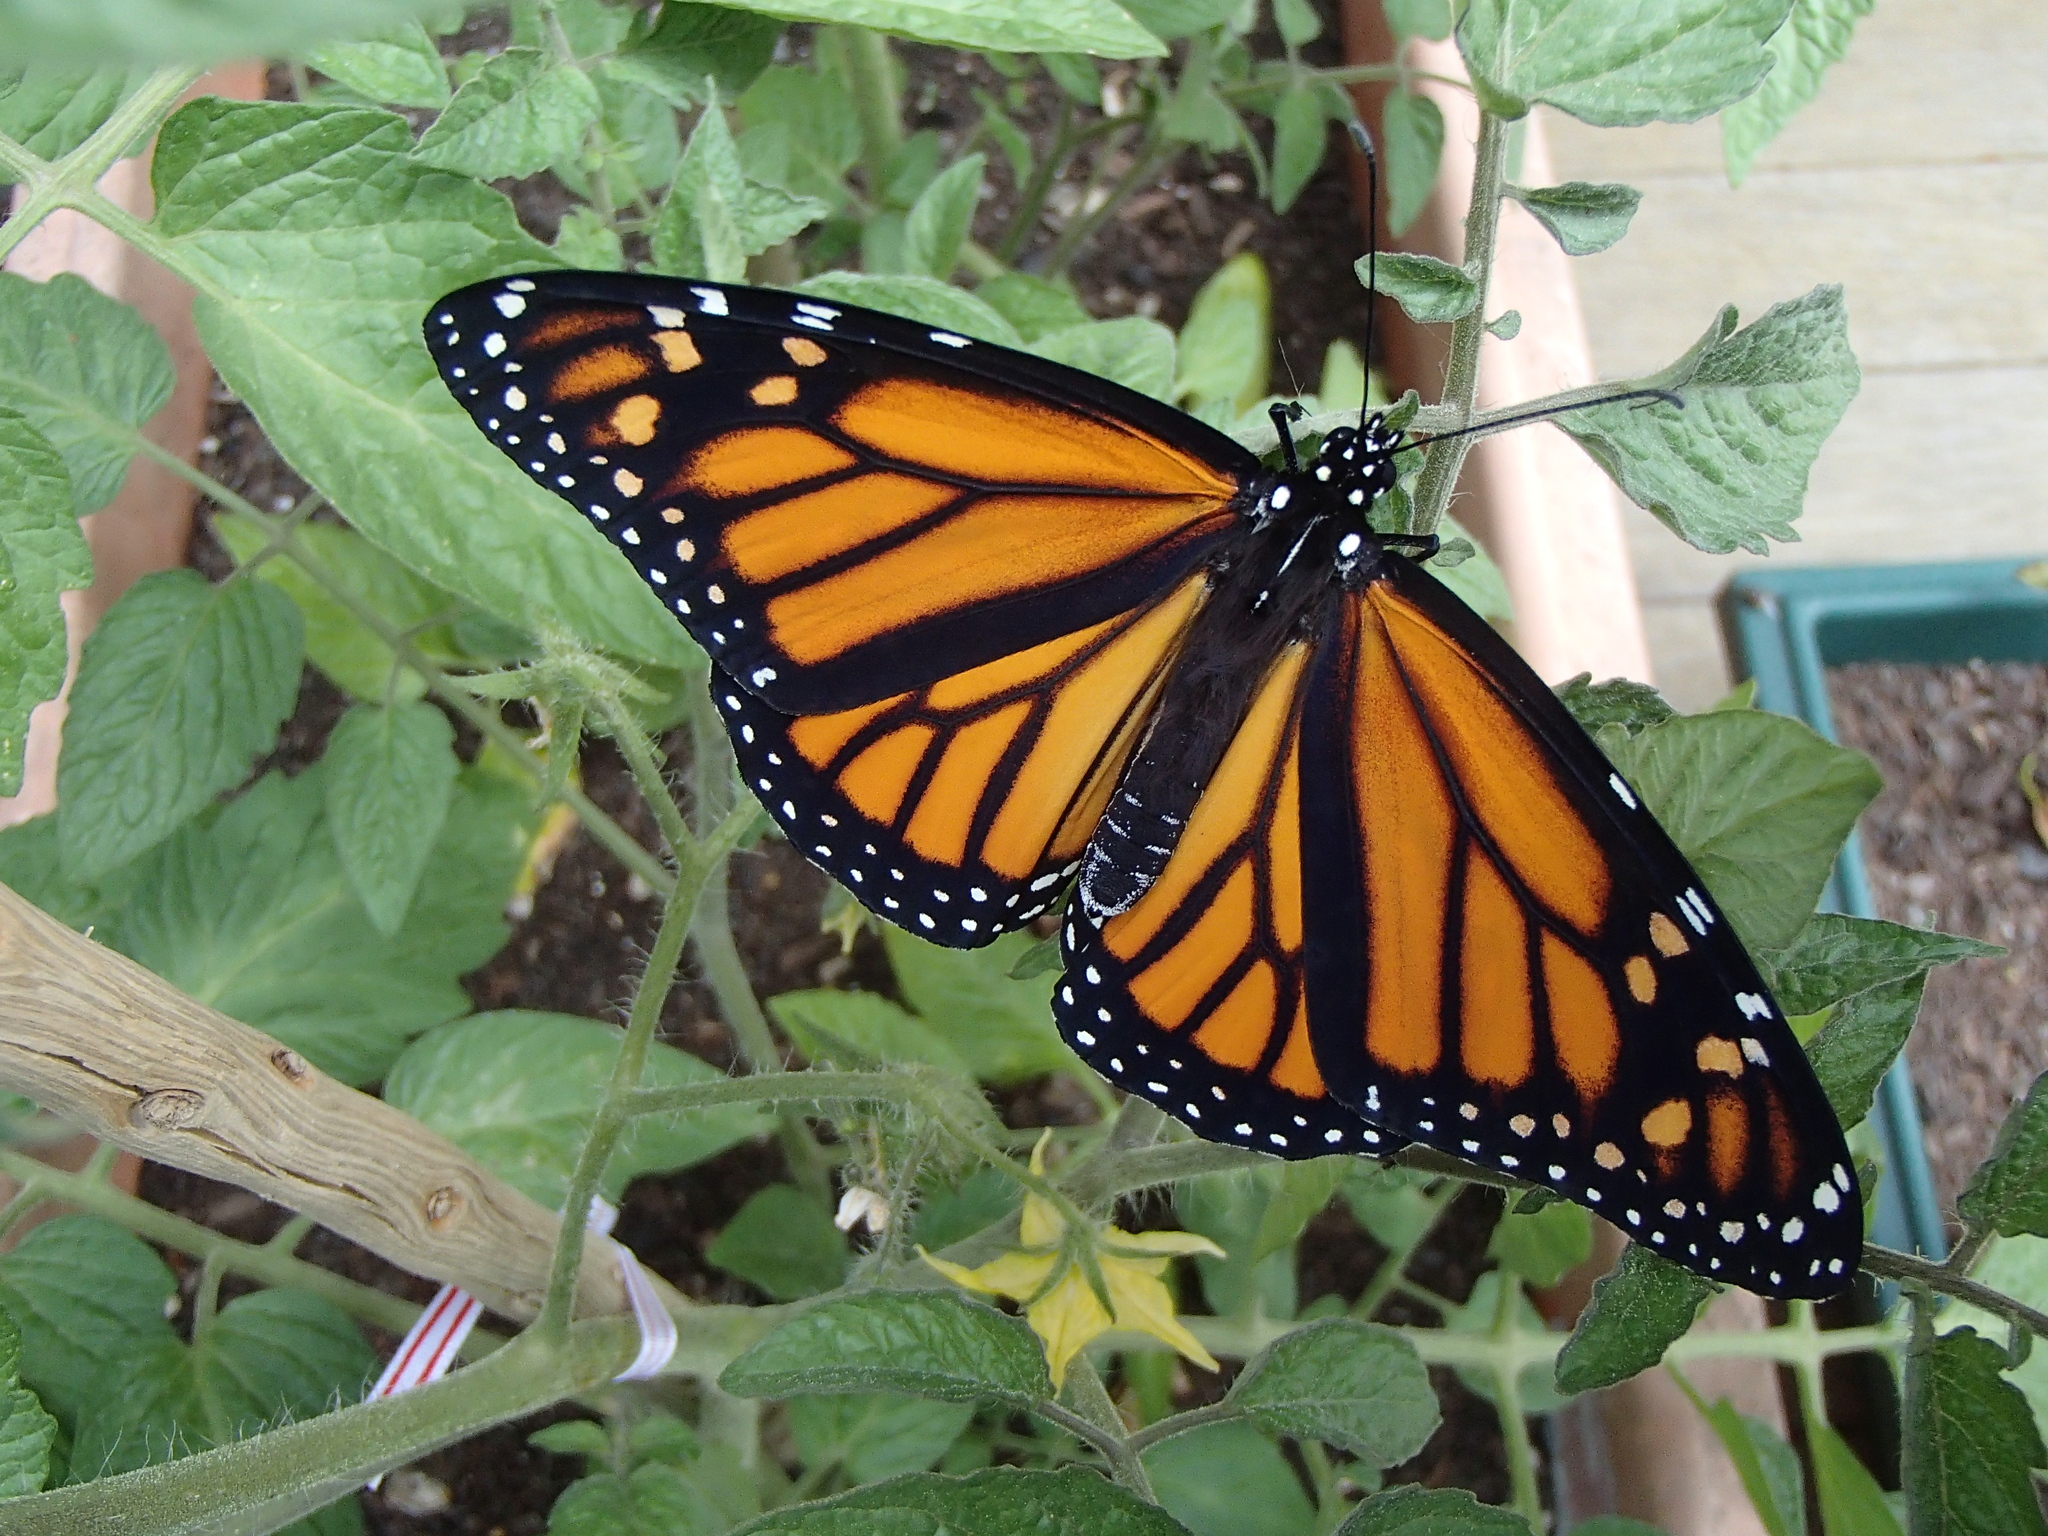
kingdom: Animalia
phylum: Arthropoda
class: Insecta
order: Lepidoptera
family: Nymphalidae
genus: Danaus
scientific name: Danaus plexippus
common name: Monarch
